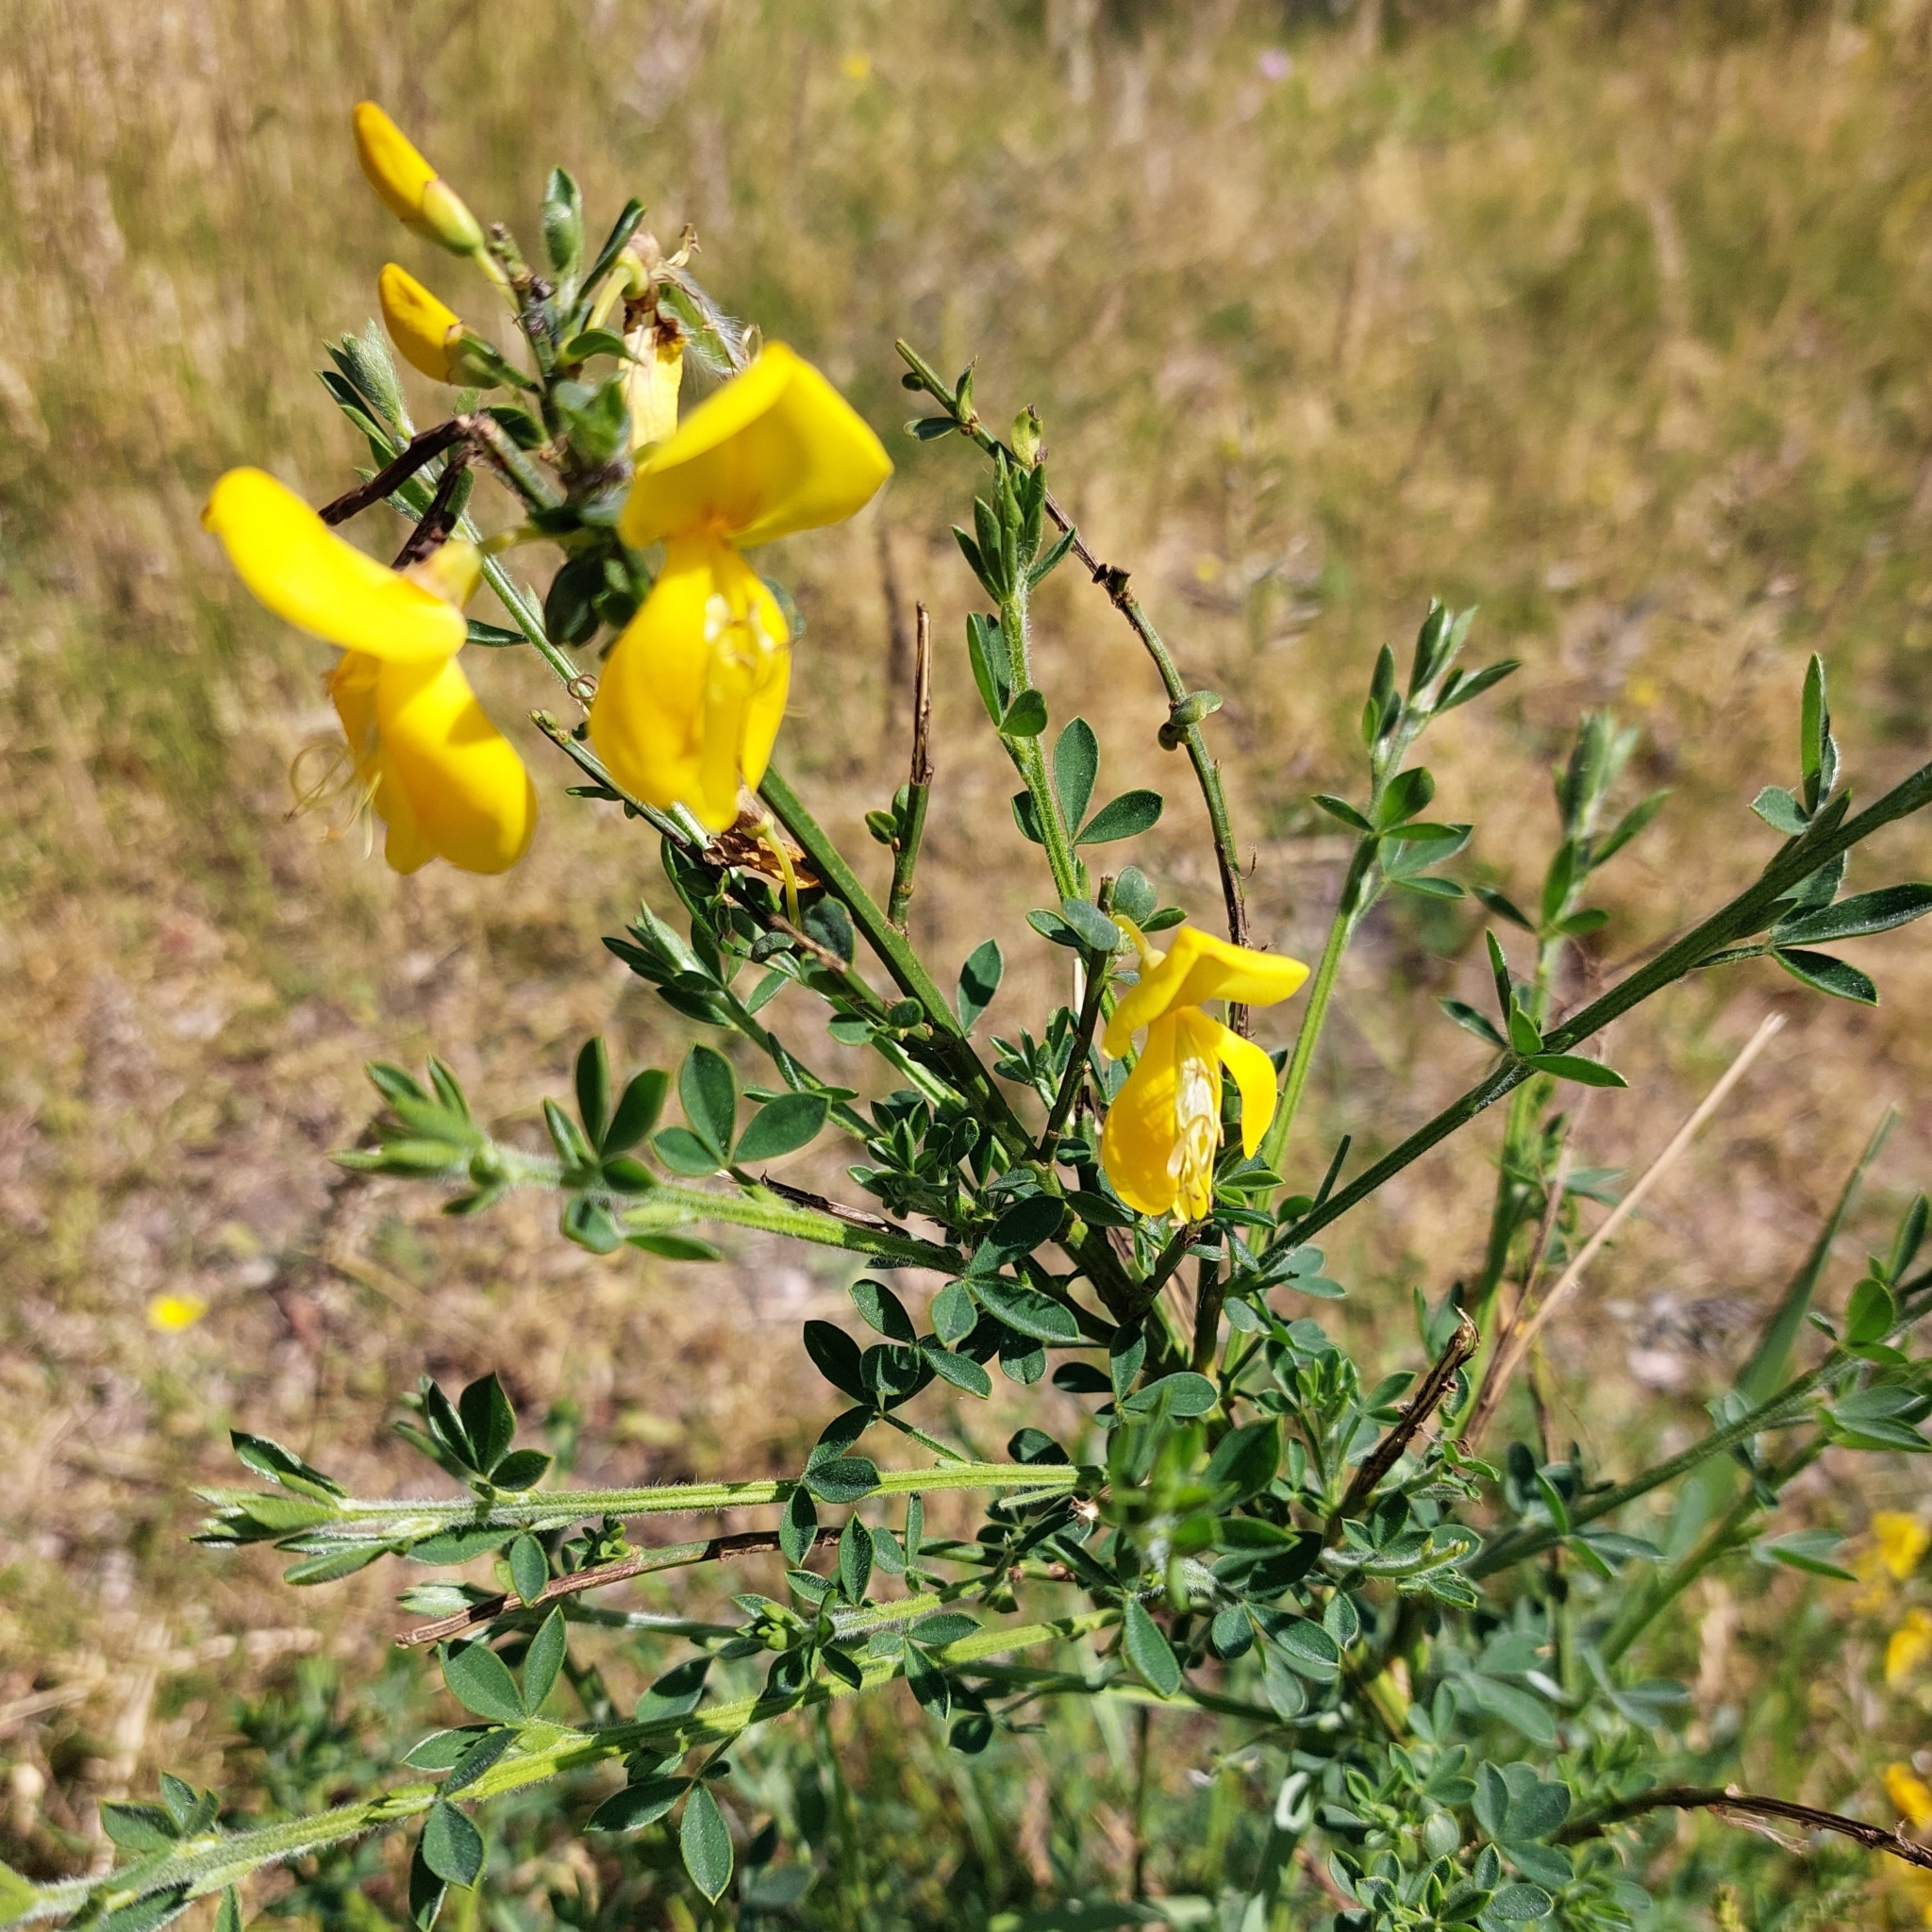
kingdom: Plantae
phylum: Tracheophyta
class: Magnoliopsida
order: Fabales
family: Fabaceae
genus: Cytisus
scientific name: Cytisus scoparius
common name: Scotch broom
